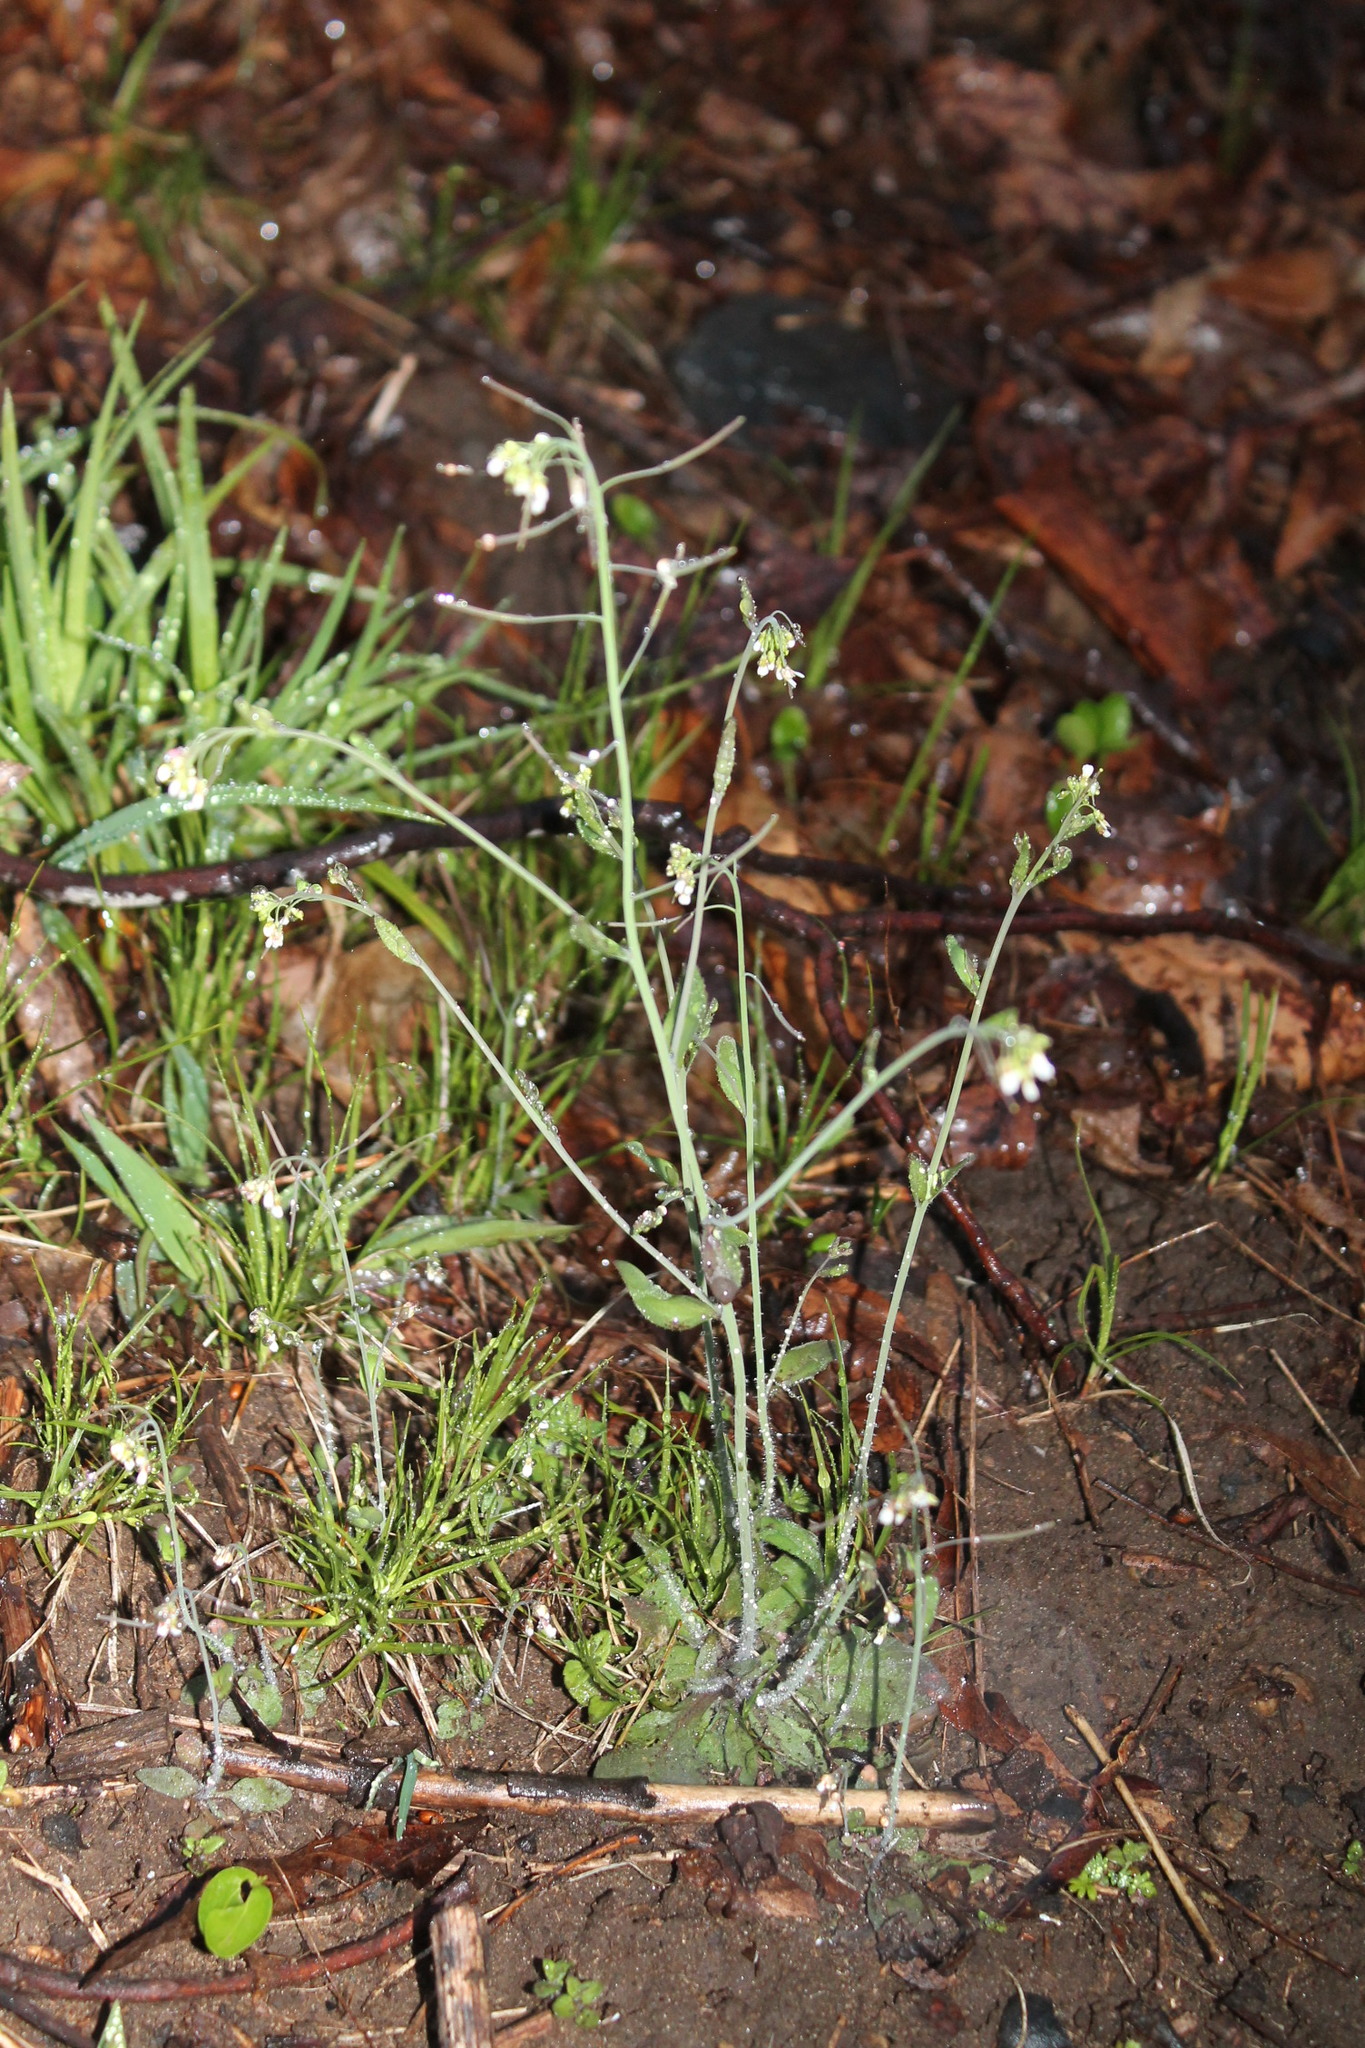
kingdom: Plantae
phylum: Tracheophyta
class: Magnoliopsida
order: Brassicales
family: Brassicaceae
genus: Arabidopsis
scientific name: Arabidopsis thaliana
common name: Thale cress
